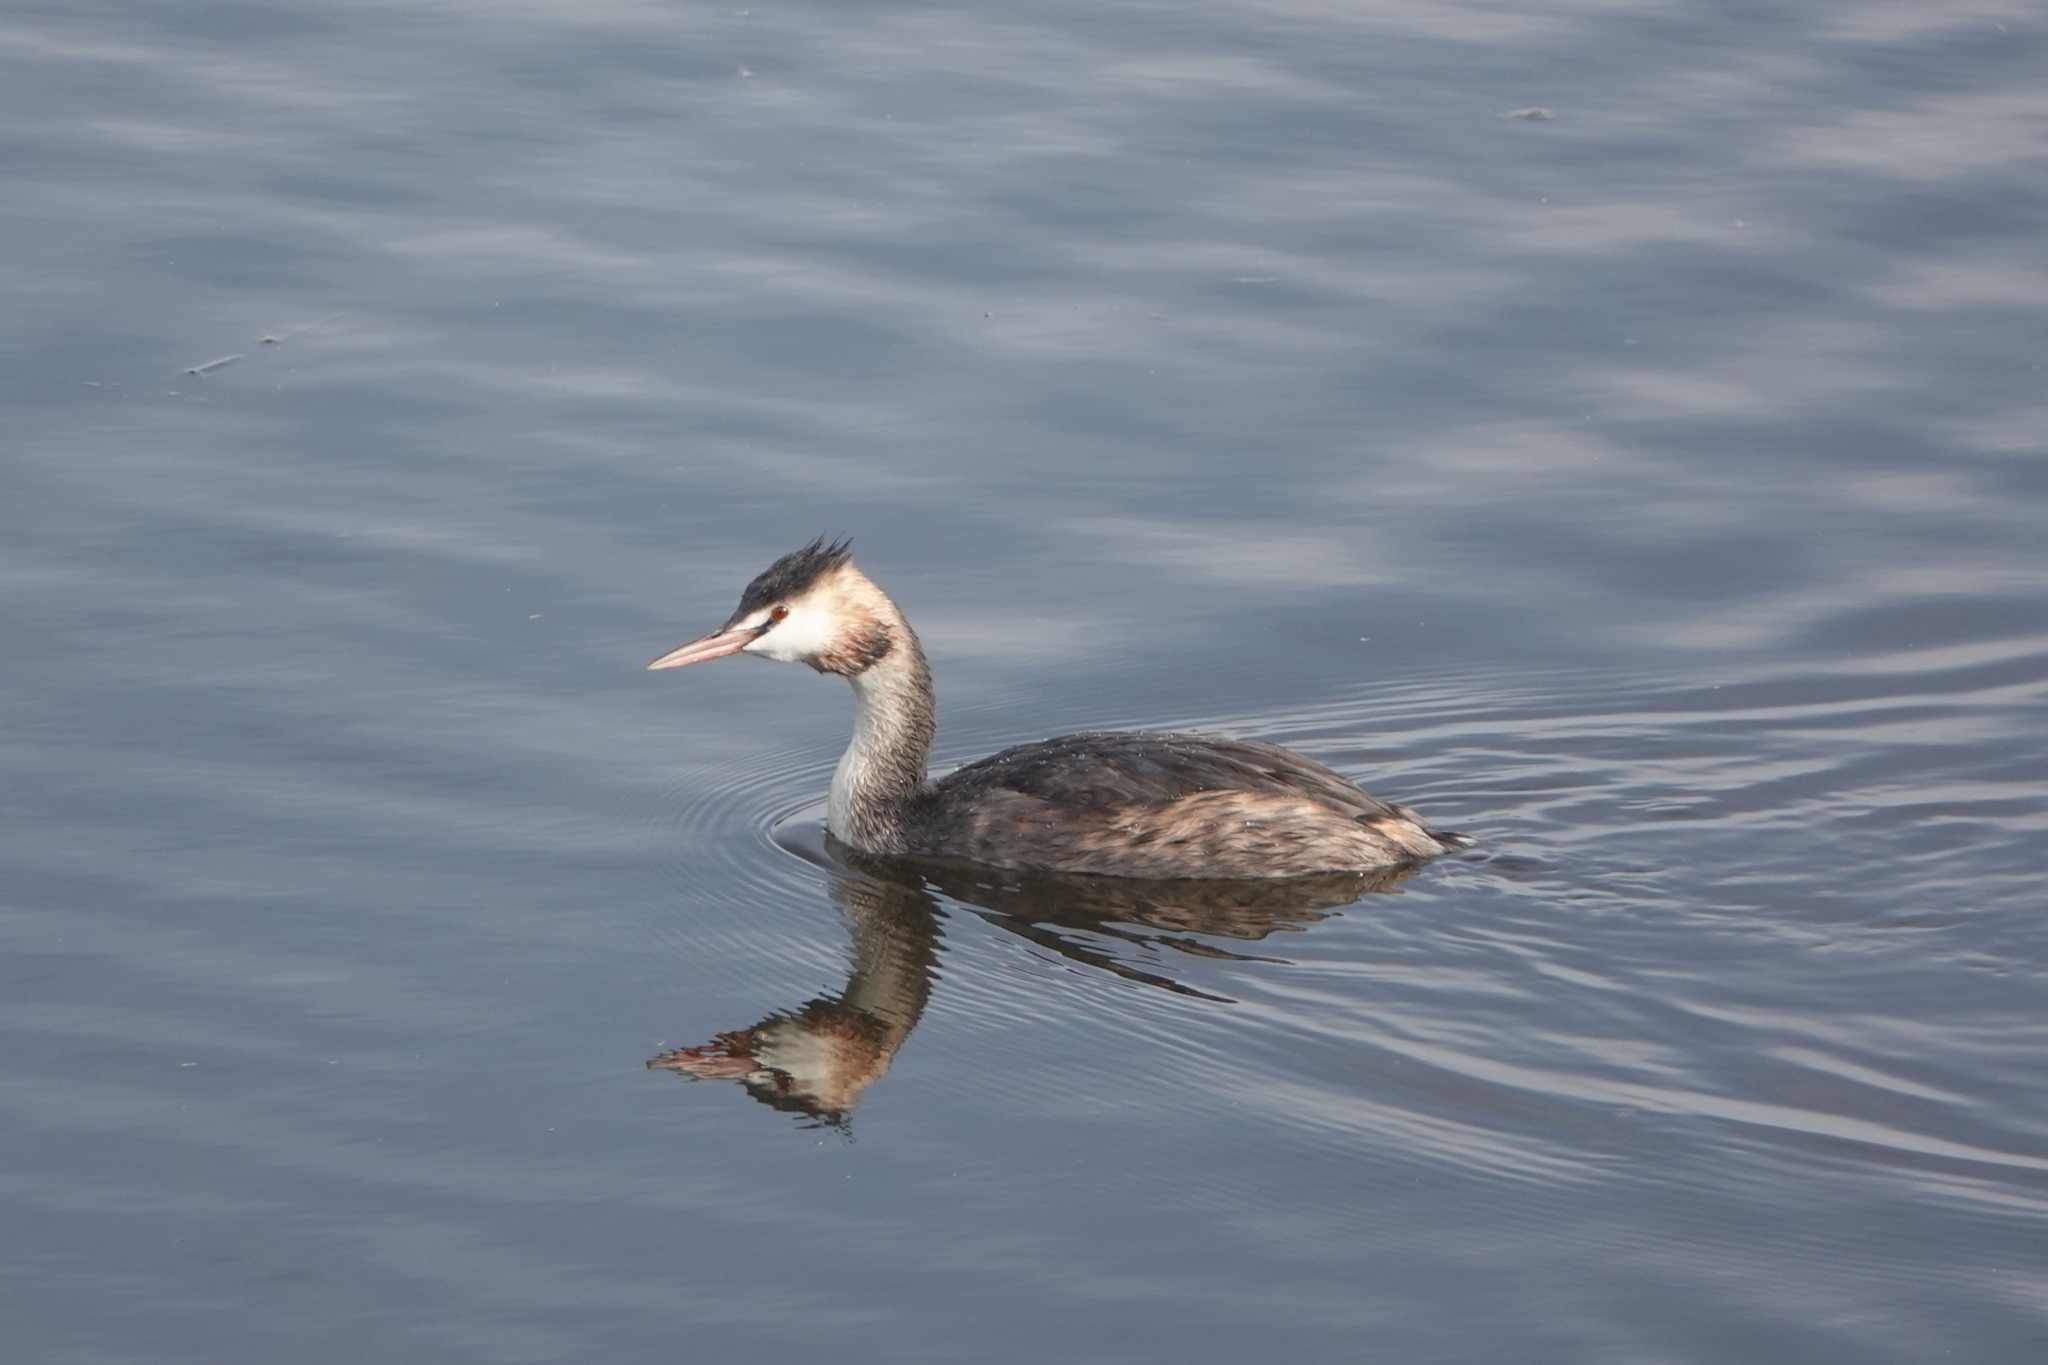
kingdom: Animalia
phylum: Chordata
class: Aves
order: Podicipediformes
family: Podicipedidae
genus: Podiceps
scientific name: Podiceps cristatus
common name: Great crested grebe
